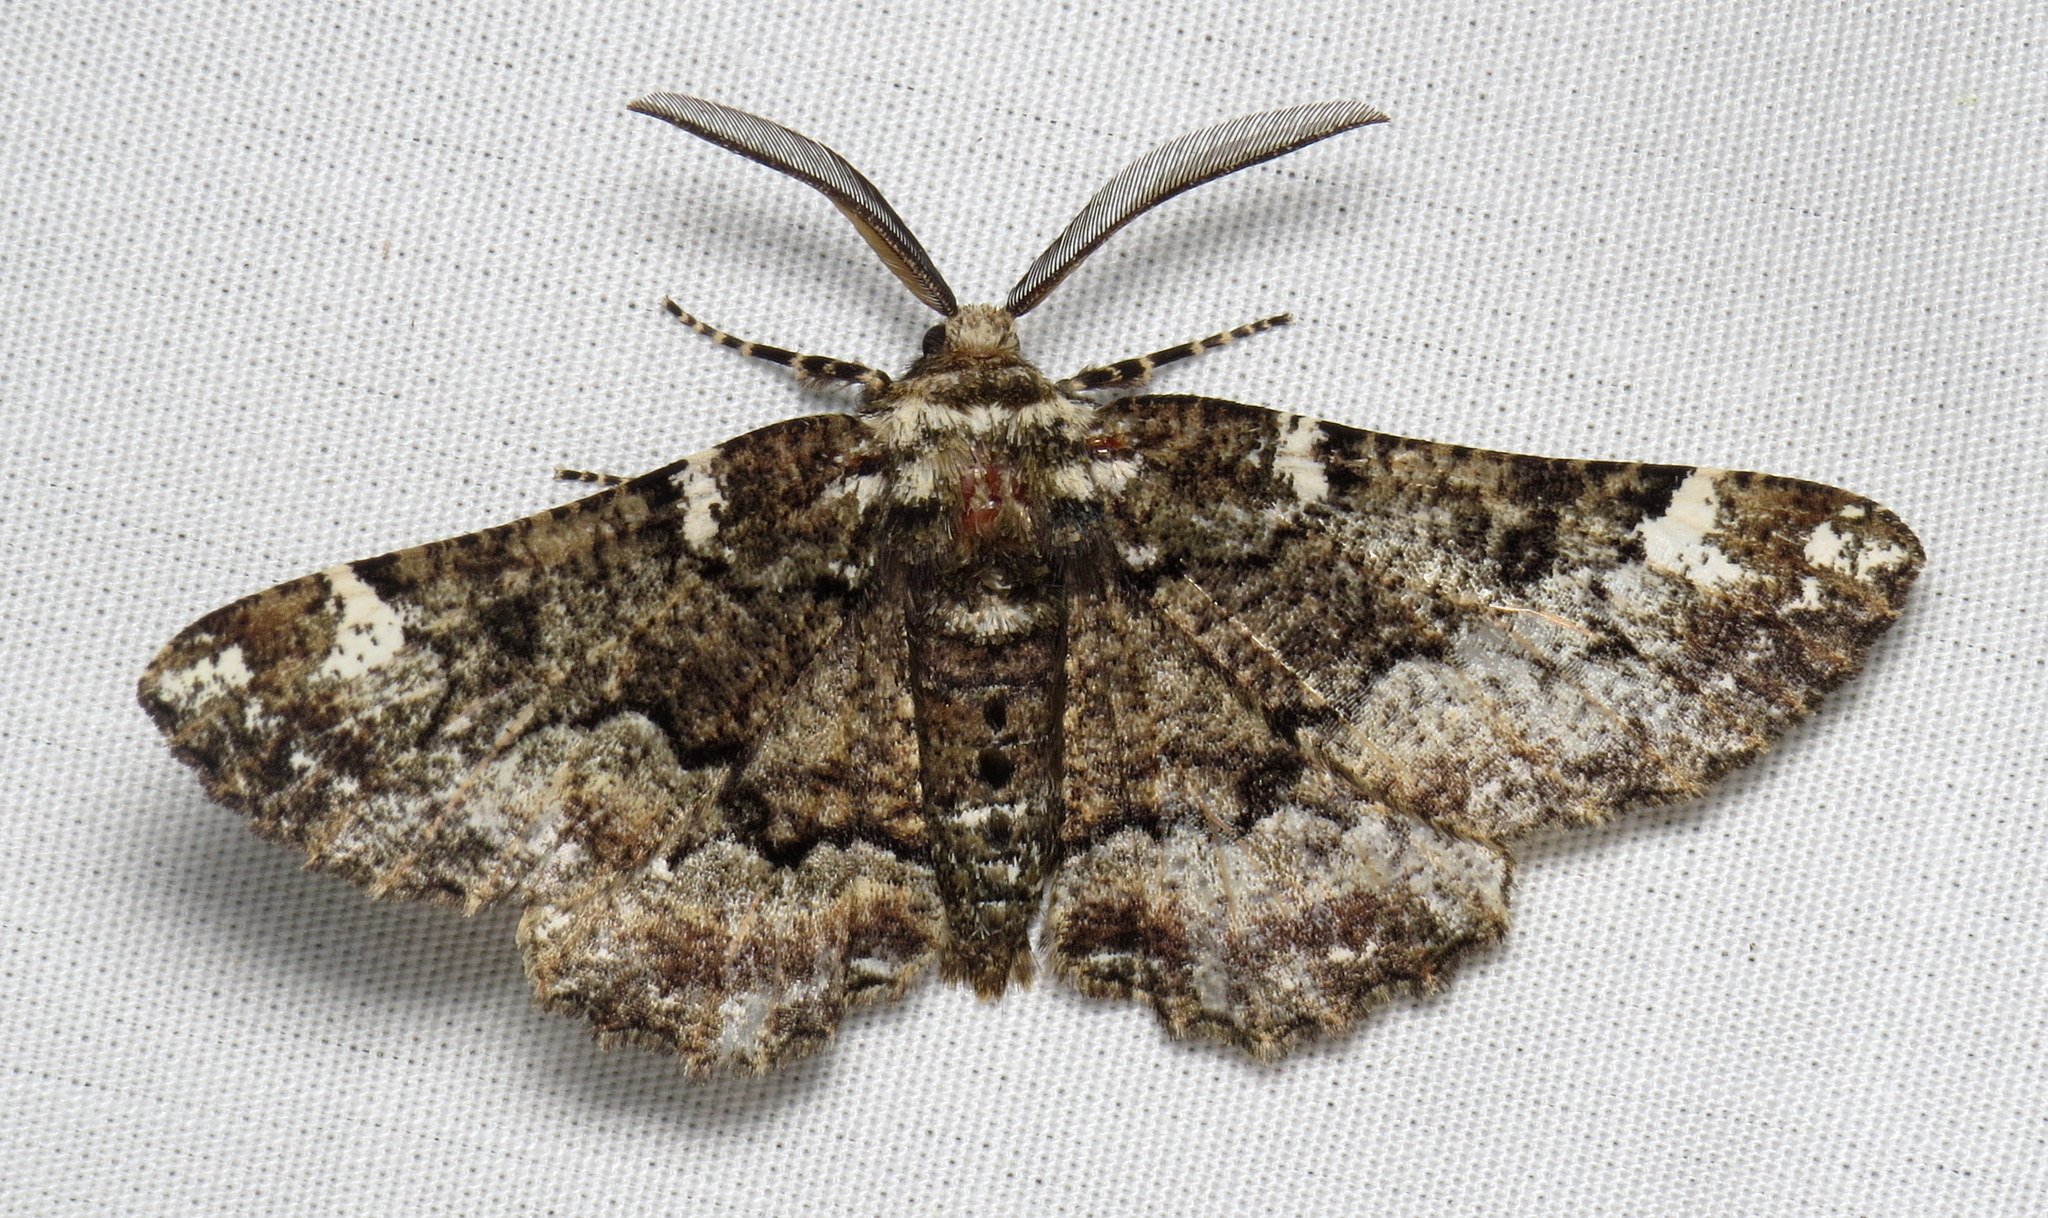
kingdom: Animalia
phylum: Arthropoda
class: Insecta
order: Lepidoptera
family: Geometridae
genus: Phaeoura
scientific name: Phaeoura quernaria
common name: Oak beauty
